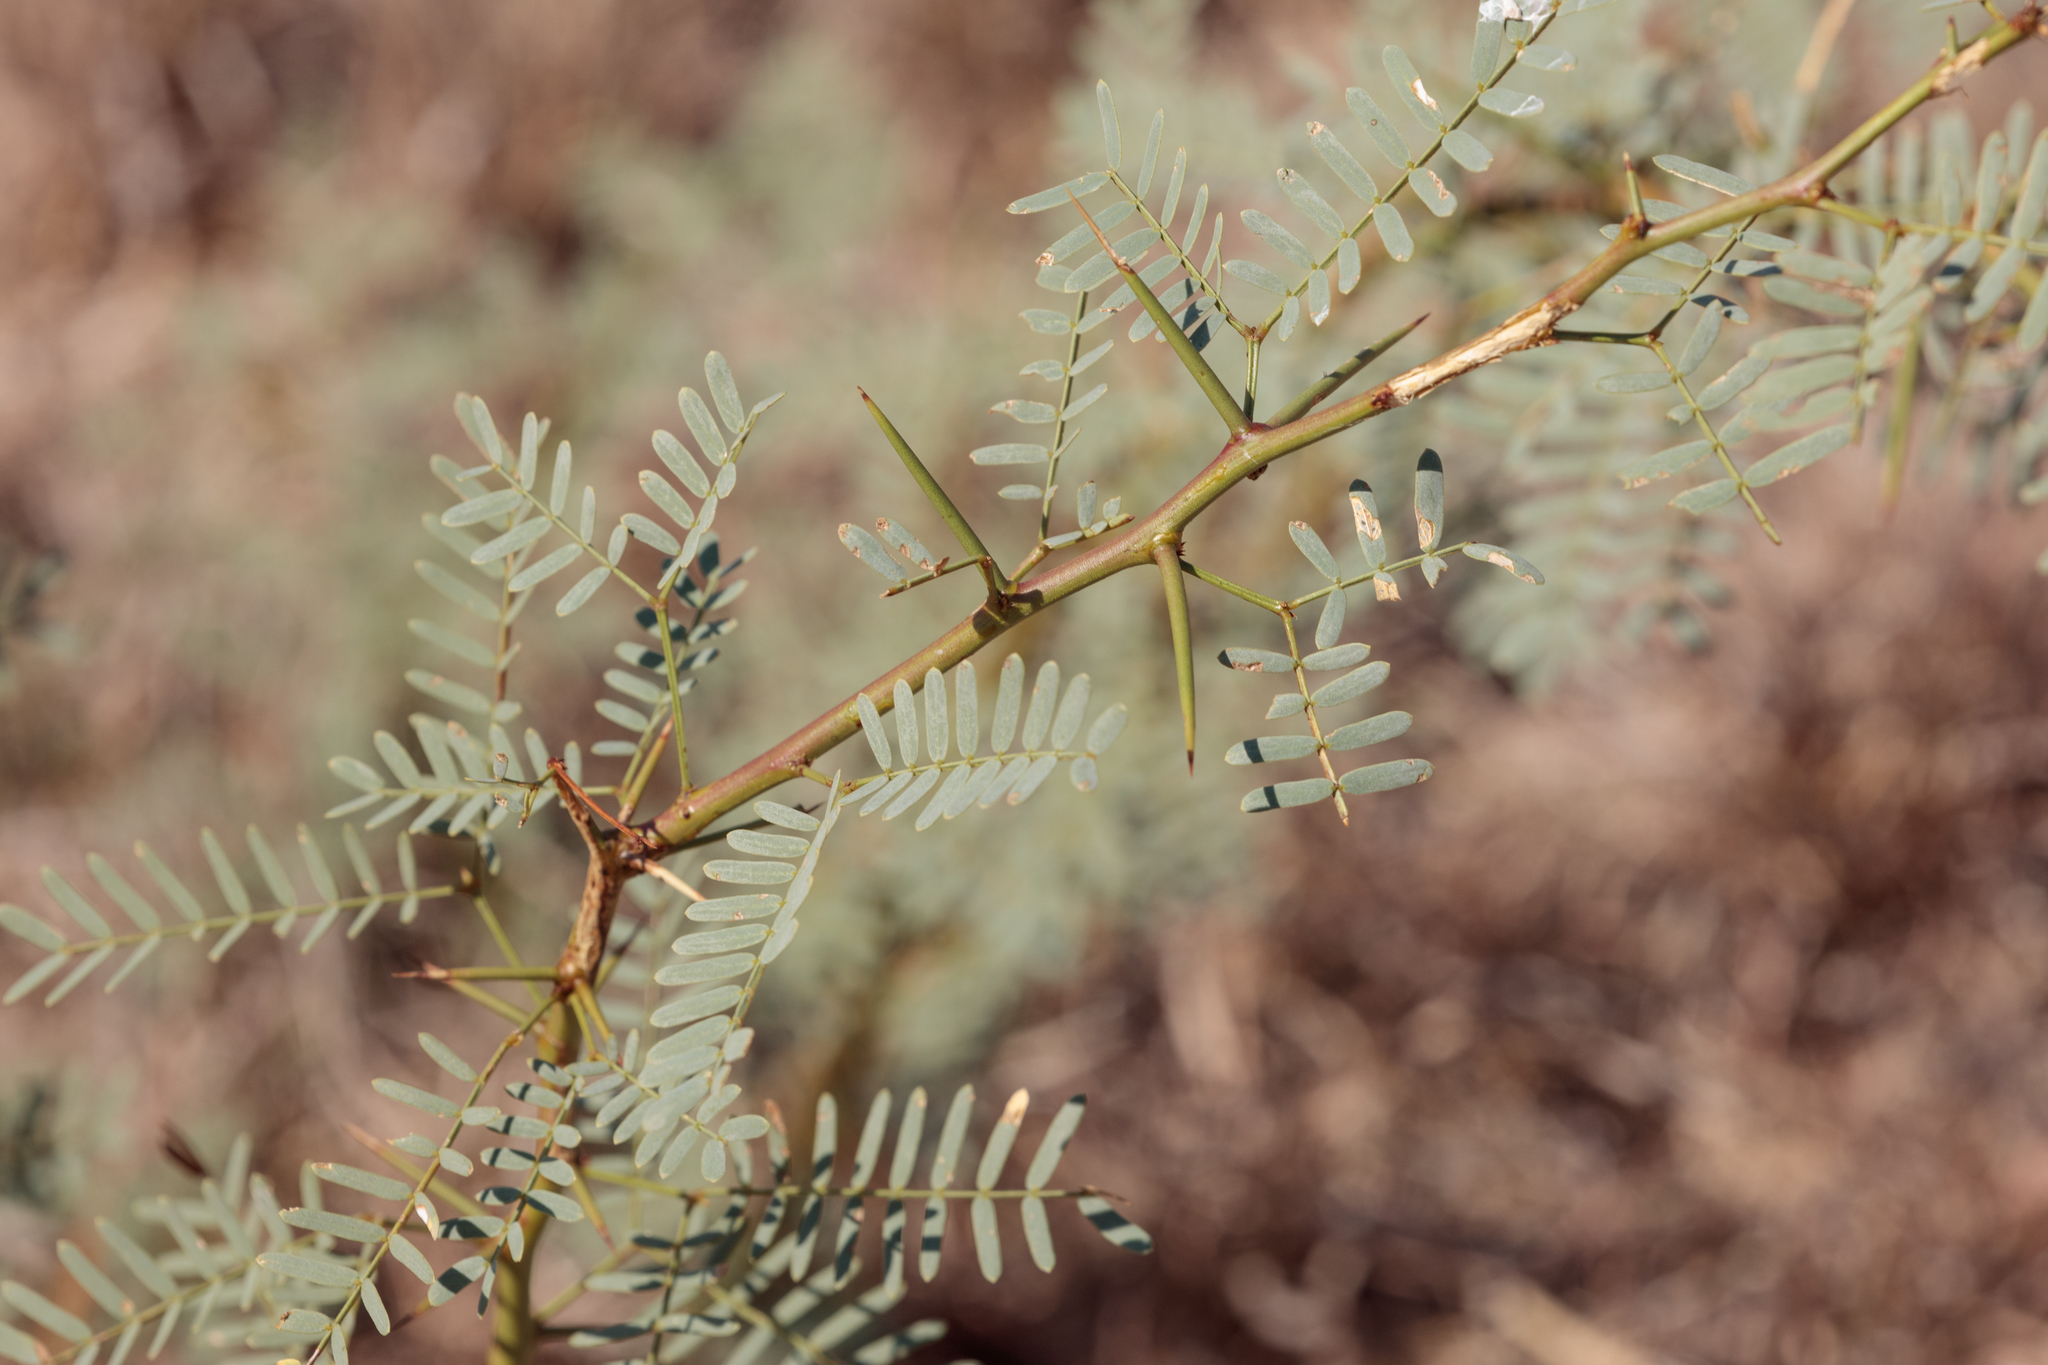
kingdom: Plantae
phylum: Tracheophyta
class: Magnoliopsida
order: Fabales
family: Fabaceae
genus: Prosopis
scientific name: Prosopis glandulosa
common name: Honey mesquite
